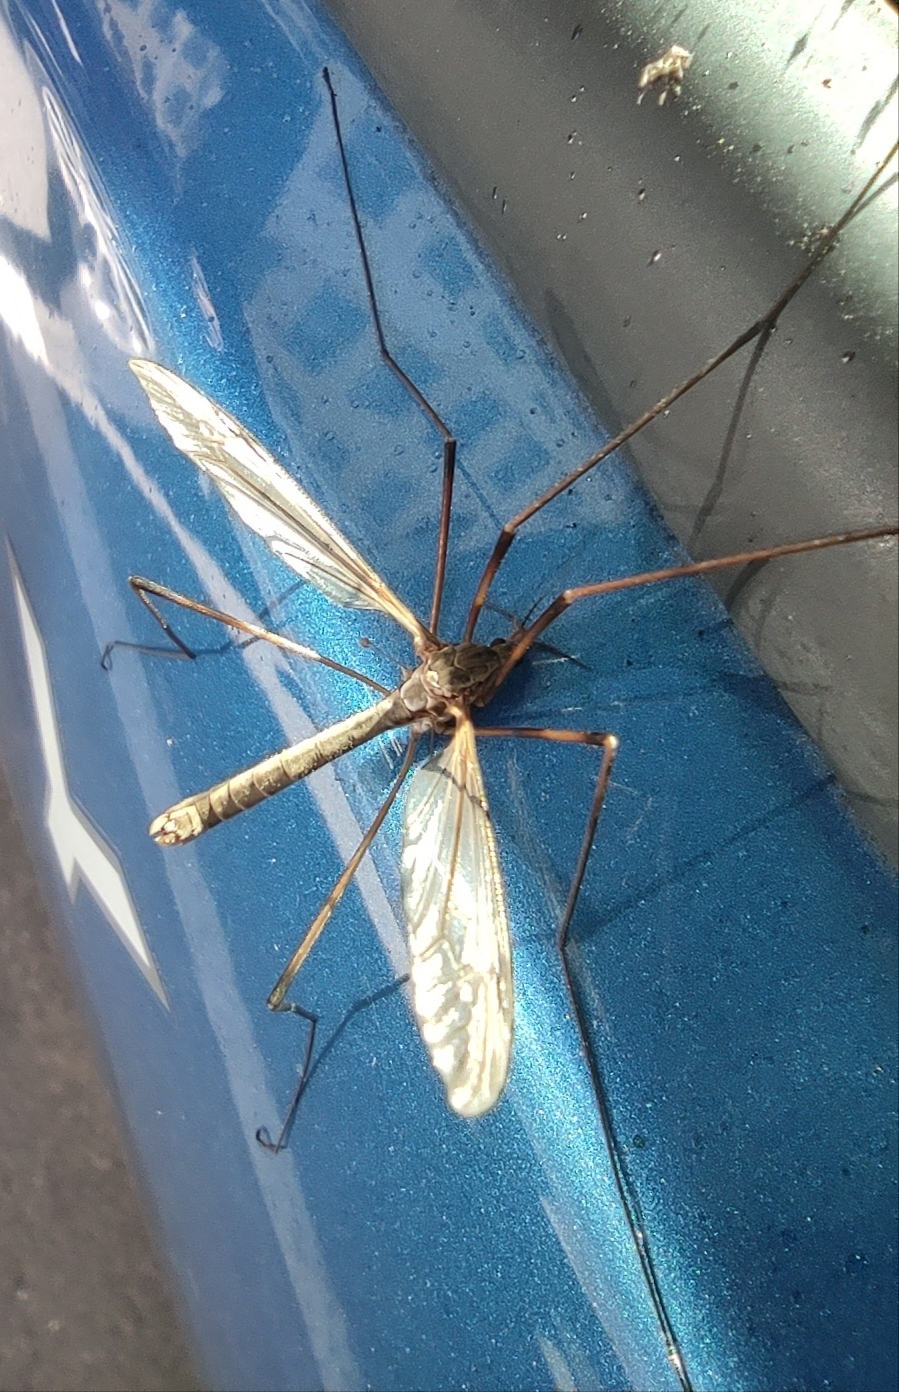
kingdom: Animalia
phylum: Arthropoda
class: Insecta
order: Diptera
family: Tipulidae
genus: Tipula
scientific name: Tipula
